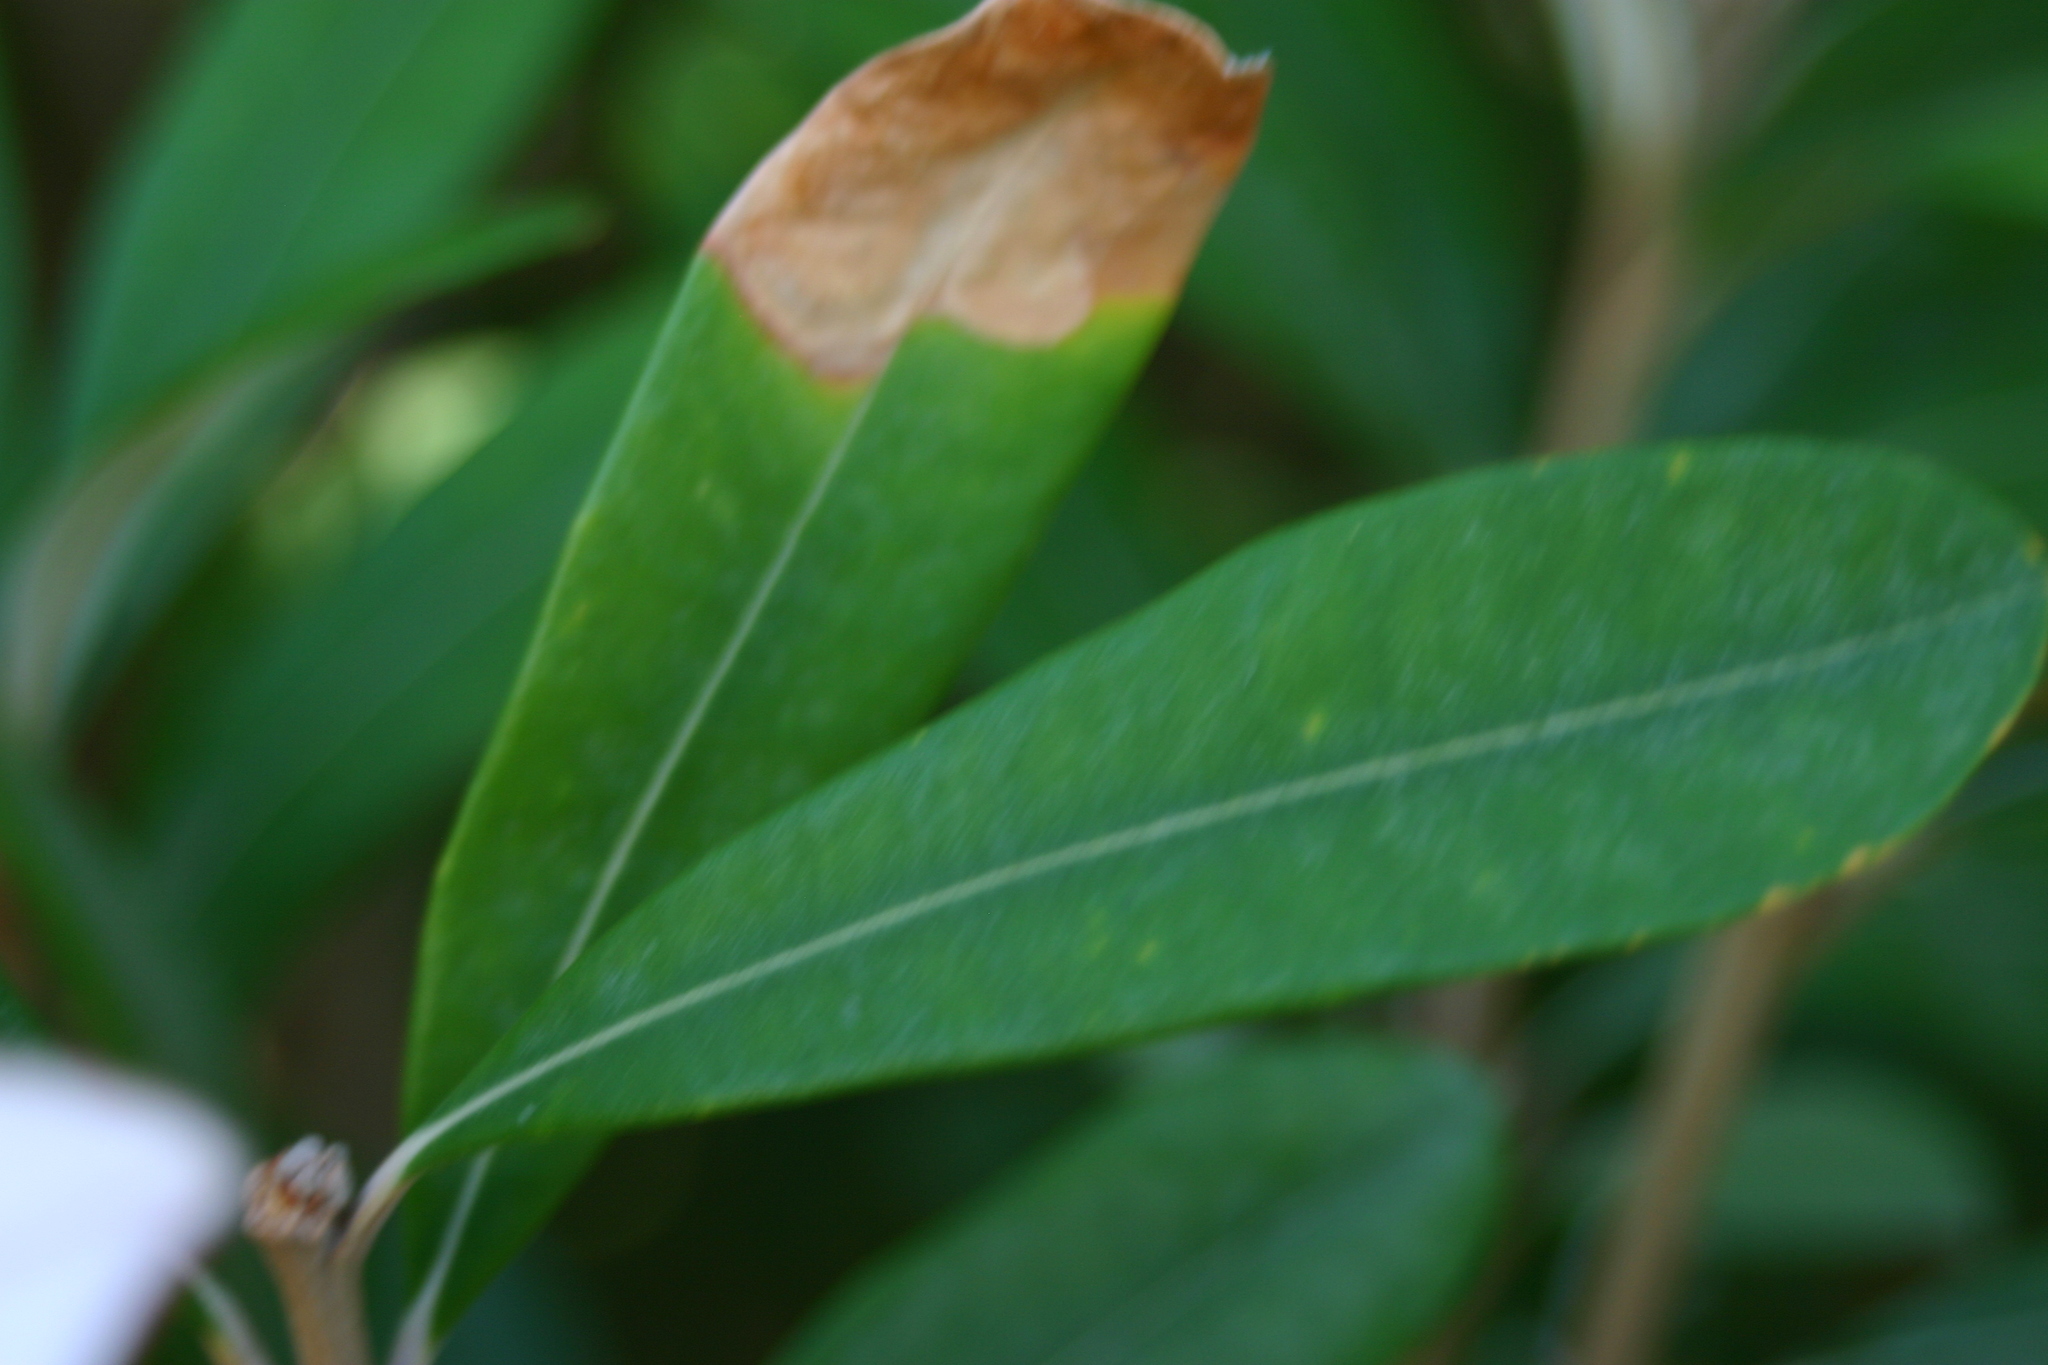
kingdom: Plantae
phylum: Tracheophyta
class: Magnoliopsida
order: Proteales
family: Proteaceae
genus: Banksia
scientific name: Banksia integrifolia
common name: White-honeysuckle
